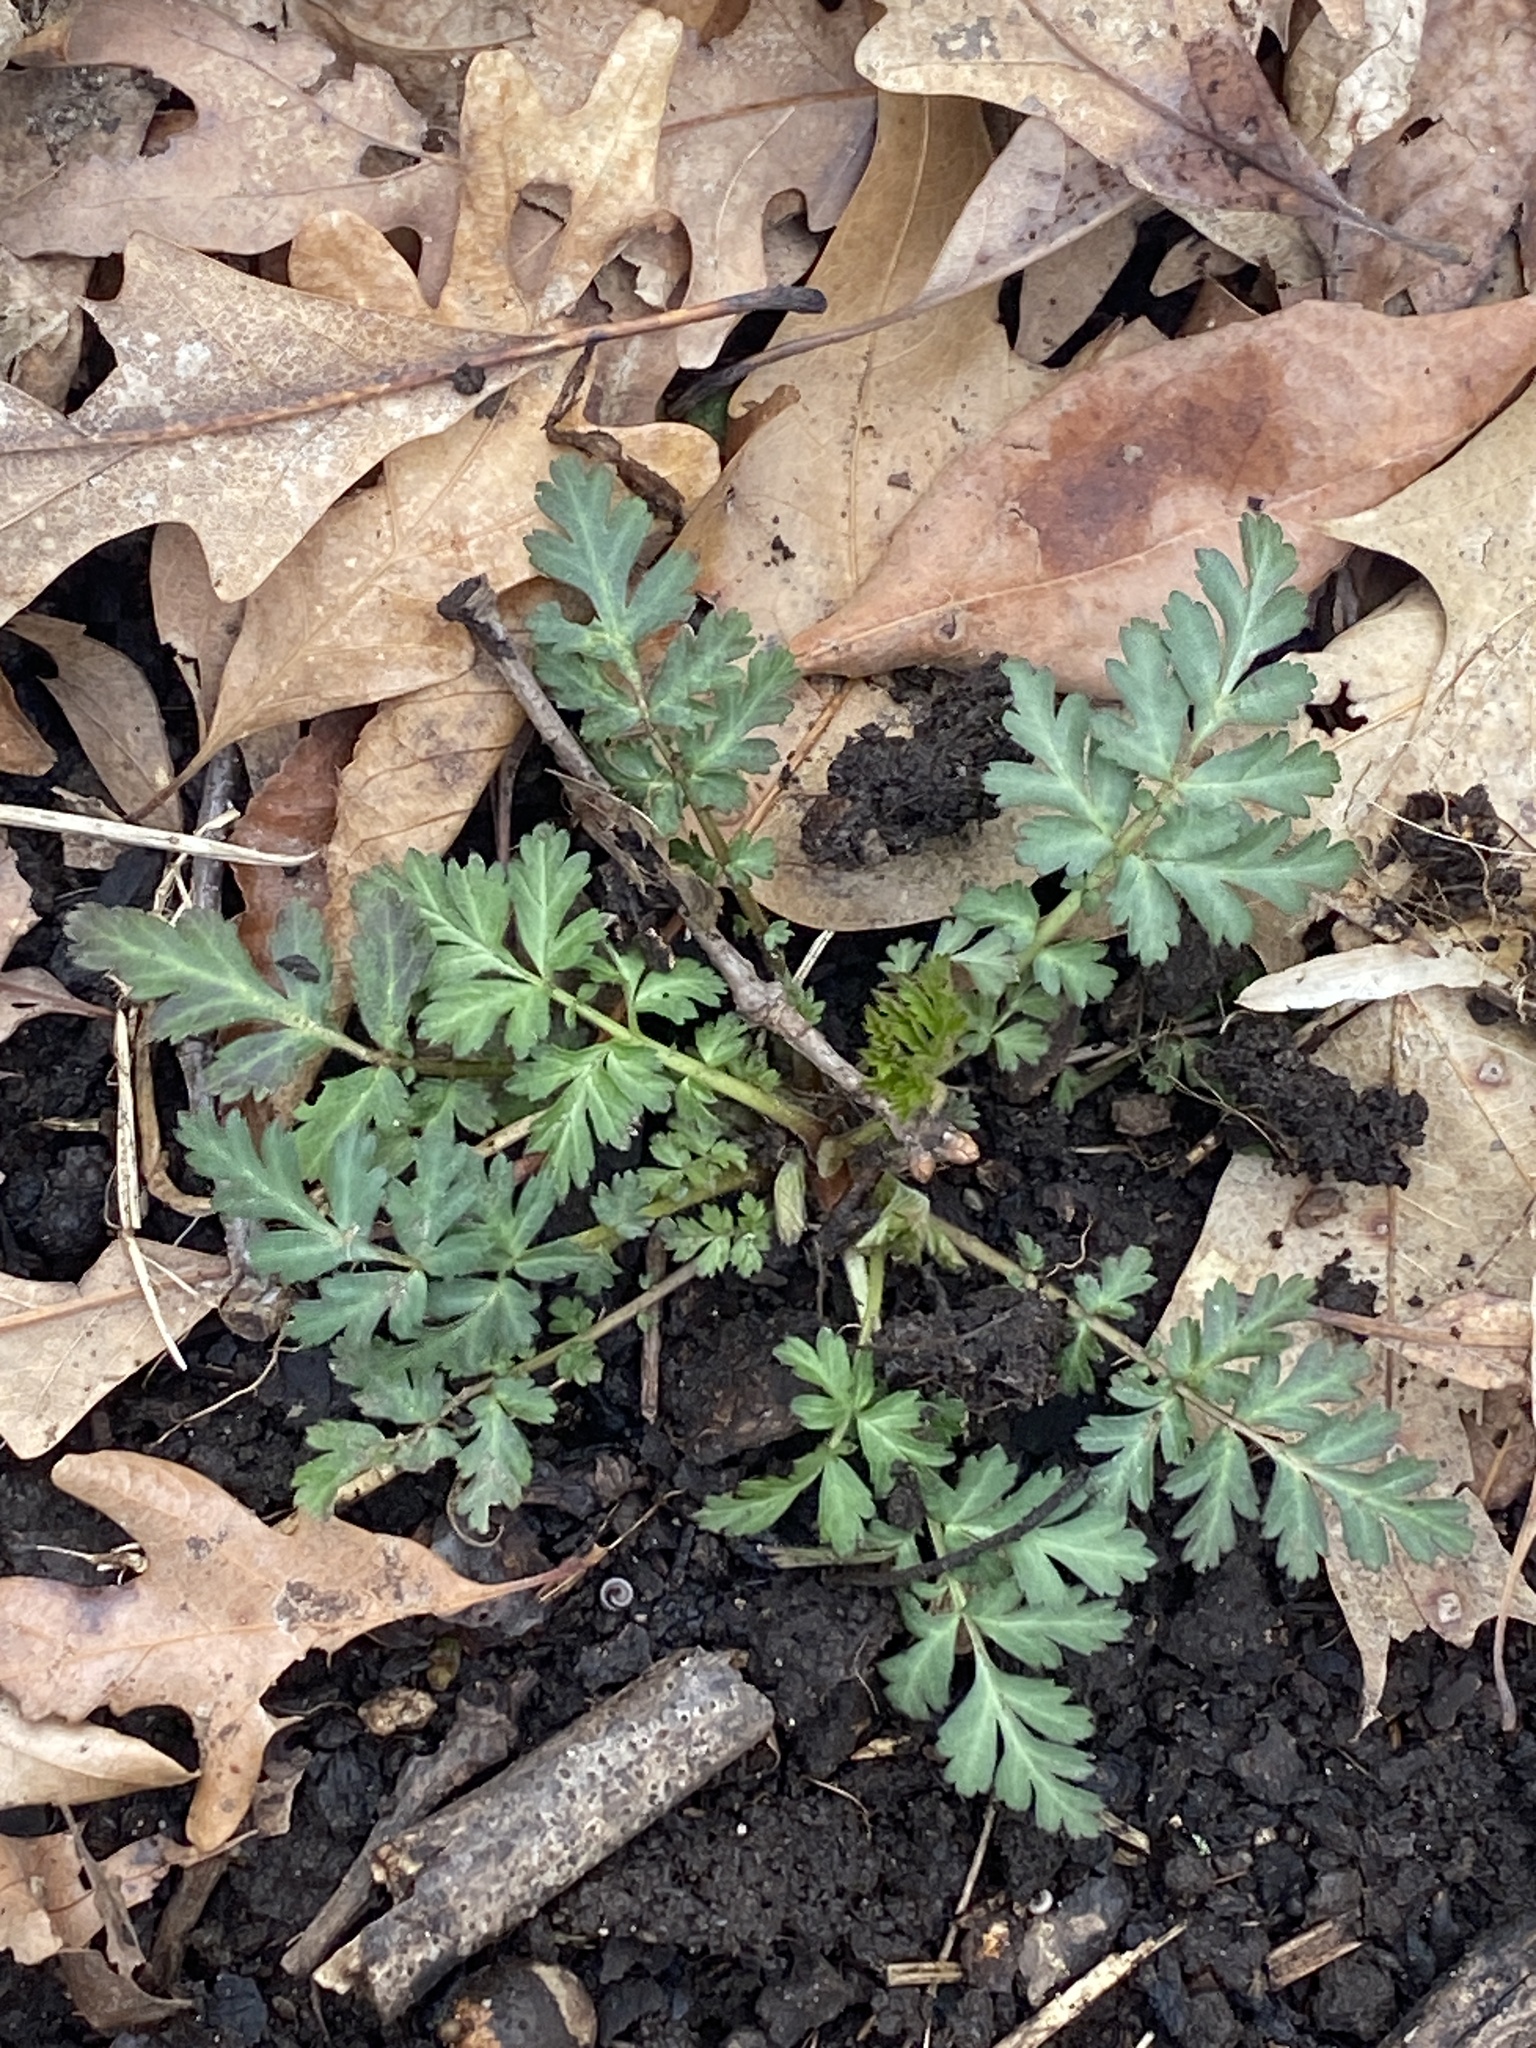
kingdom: Plantae
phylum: Tracheophyta
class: Magnoliopsida
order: Rosales
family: Rosaceae
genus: Geum
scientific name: Geum canadense
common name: White avens
